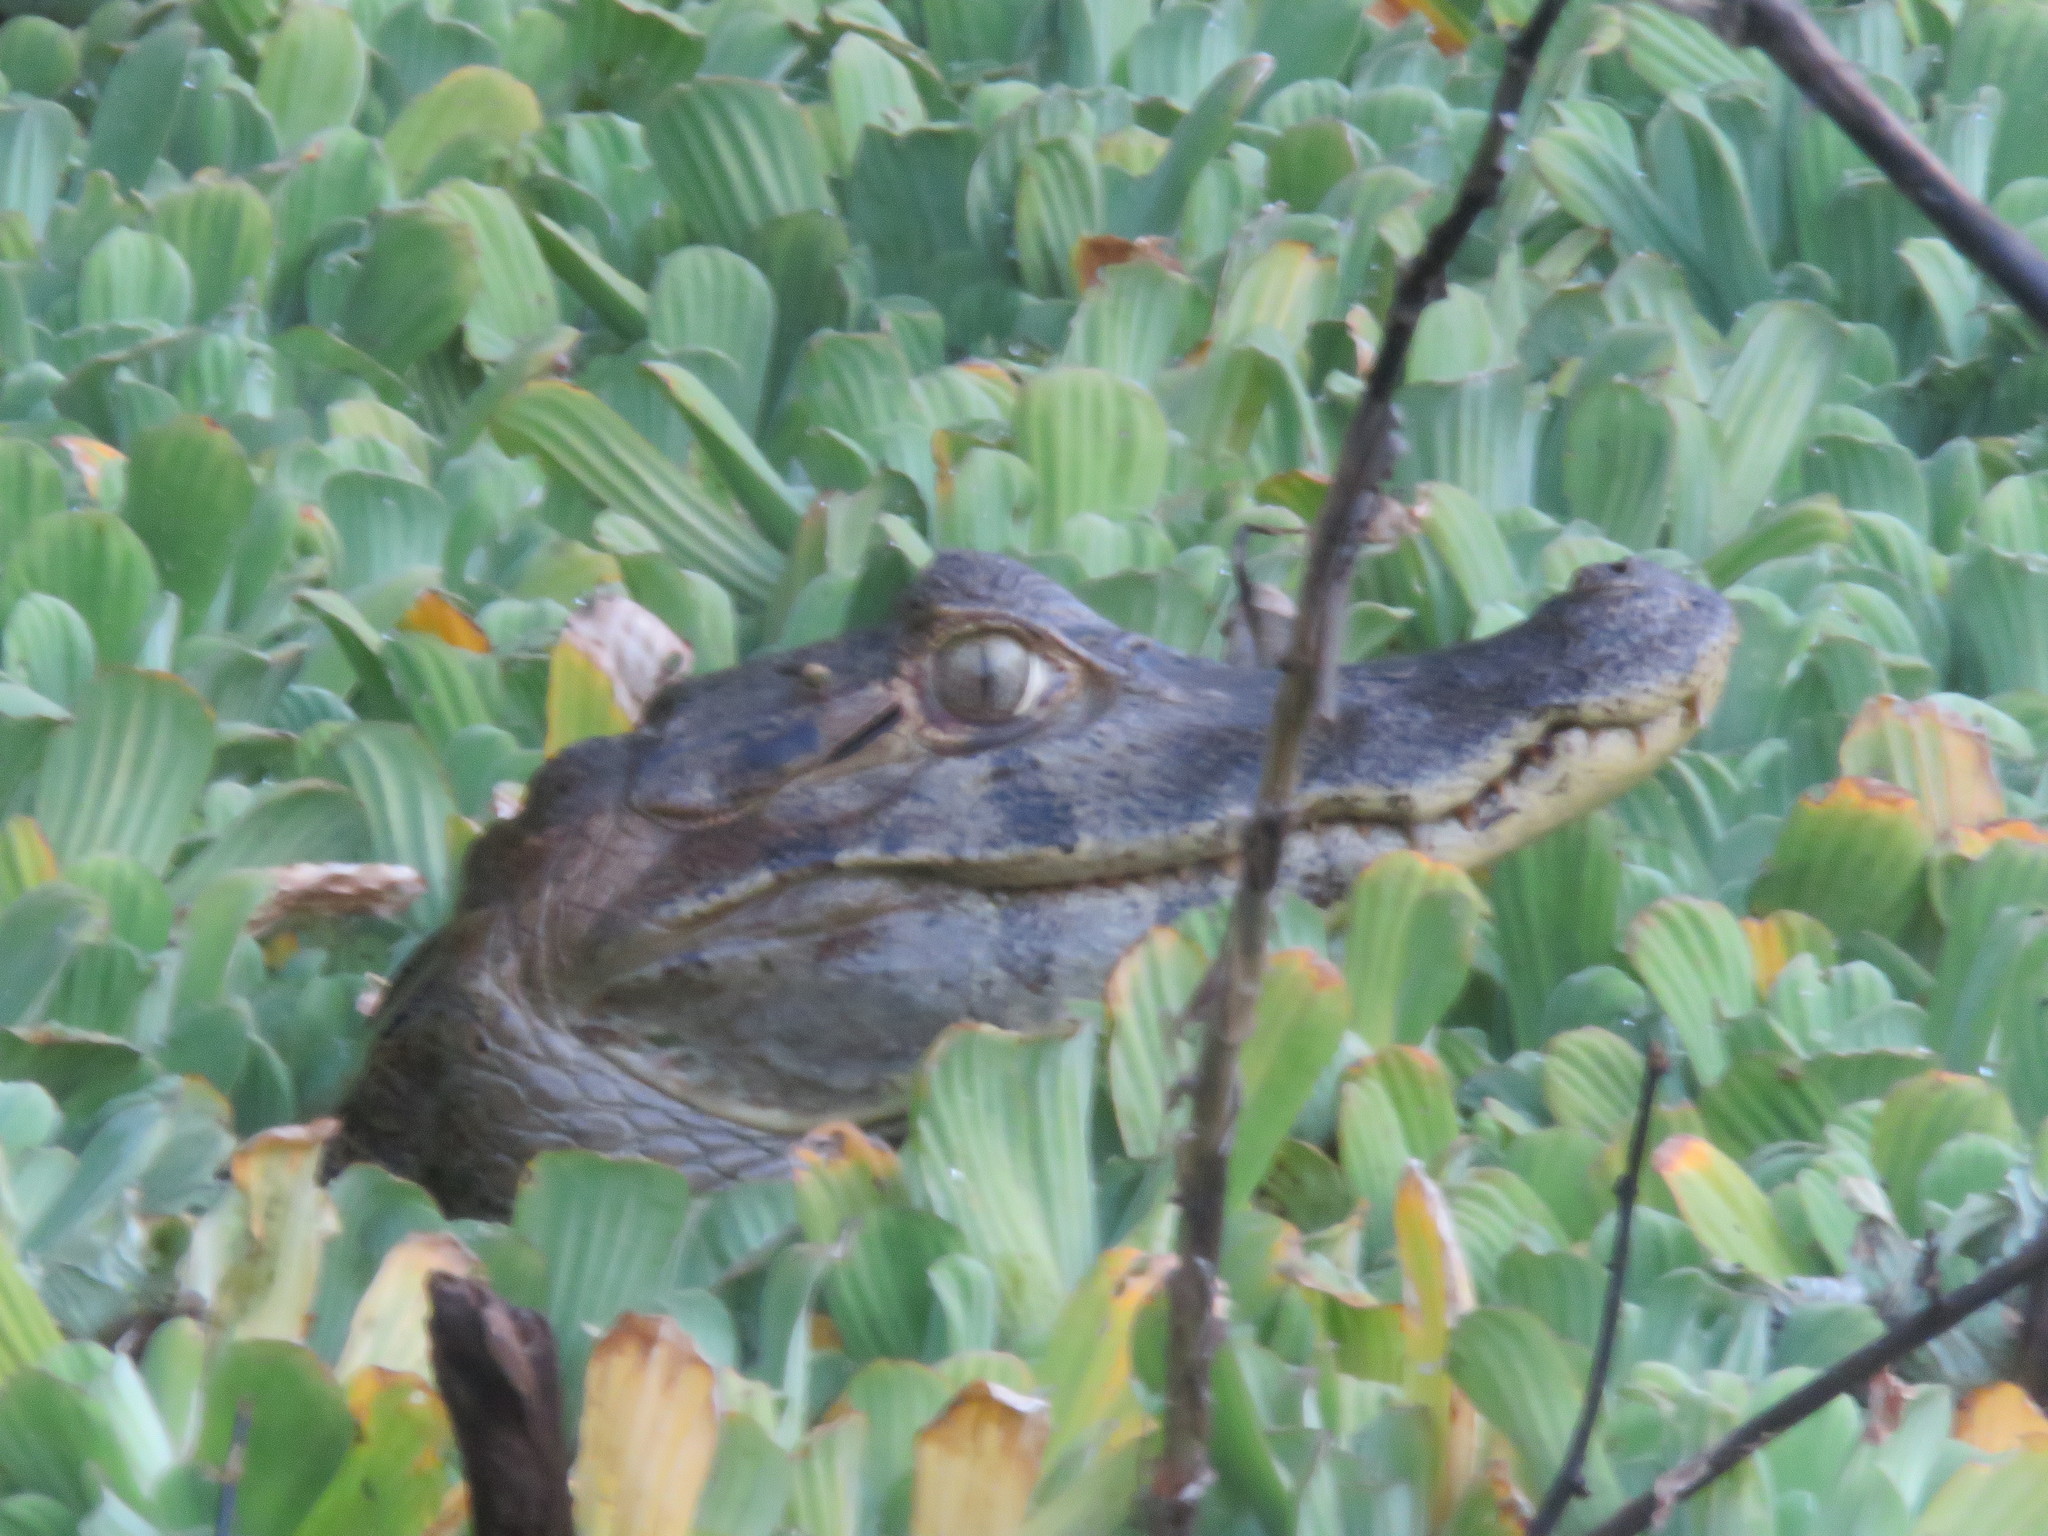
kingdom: Animalia
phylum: Chordata
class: Crocodylia
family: Alligatoridae
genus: Caiman
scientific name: Caiman yacare
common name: Yacare caiman
